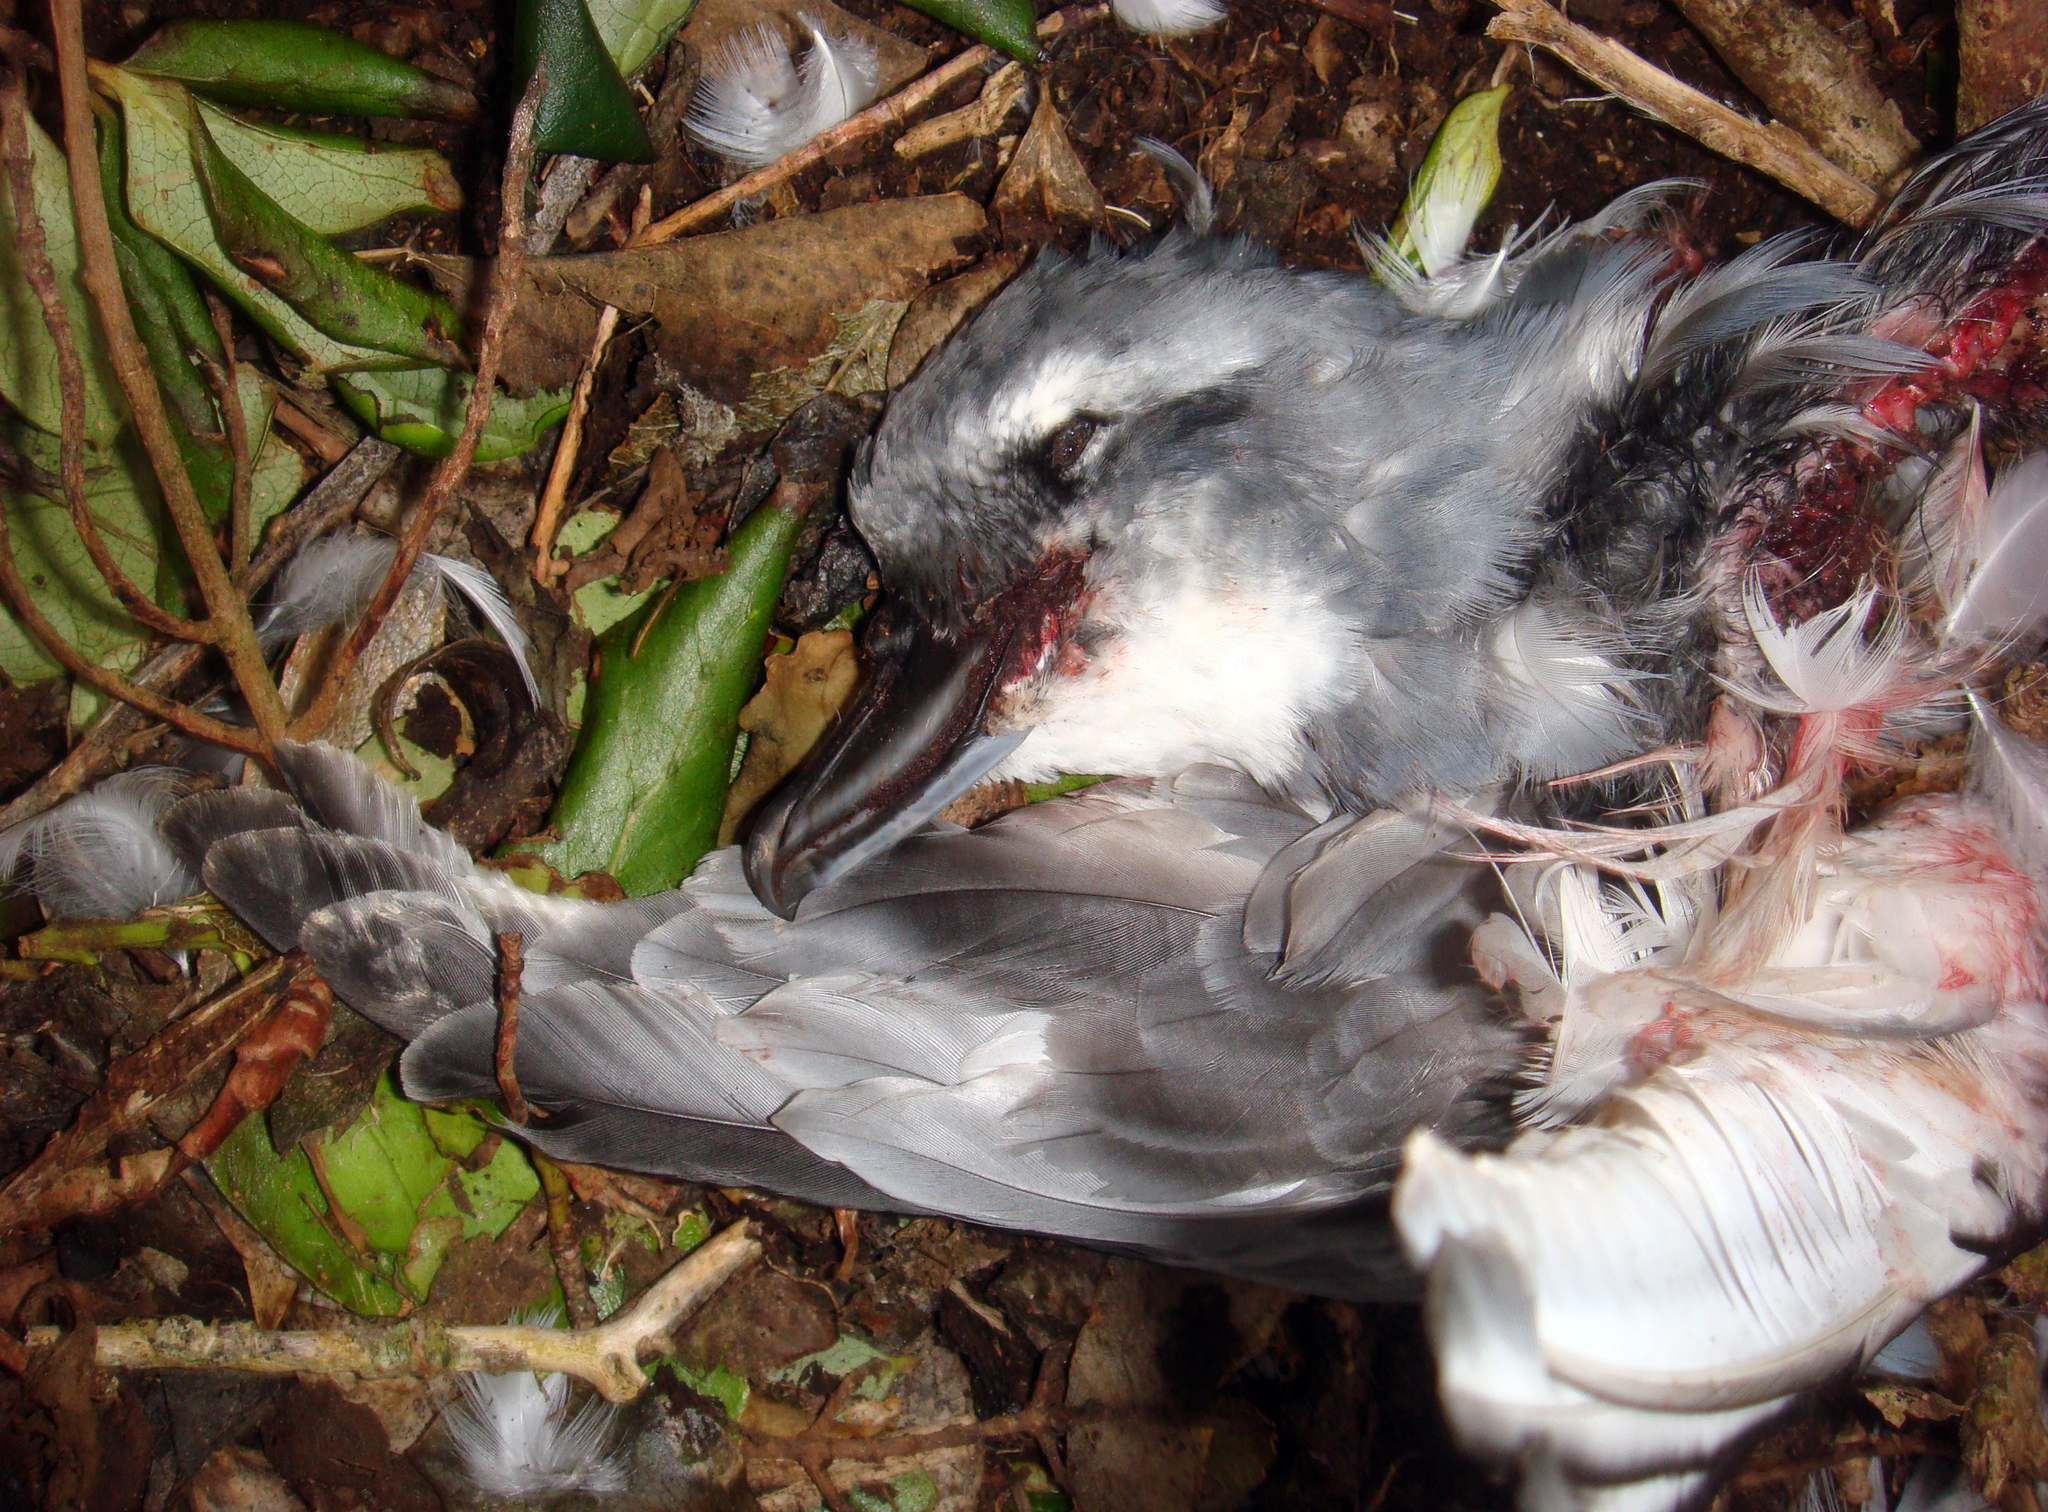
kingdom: Animalia
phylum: Chordata
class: Aves
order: Procellariiformes
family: Procellariidae
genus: Pachyptila
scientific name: Pachyptila vittata
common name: Broad-billed prion
